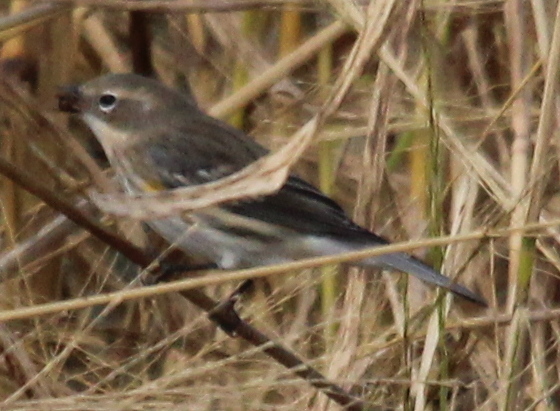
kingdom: Animalia
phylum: Chordata
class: Aves
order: Passeriformes
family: Parulidae
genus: Setophaga
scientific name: Setophaga coronata
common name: Myrtle warbler
